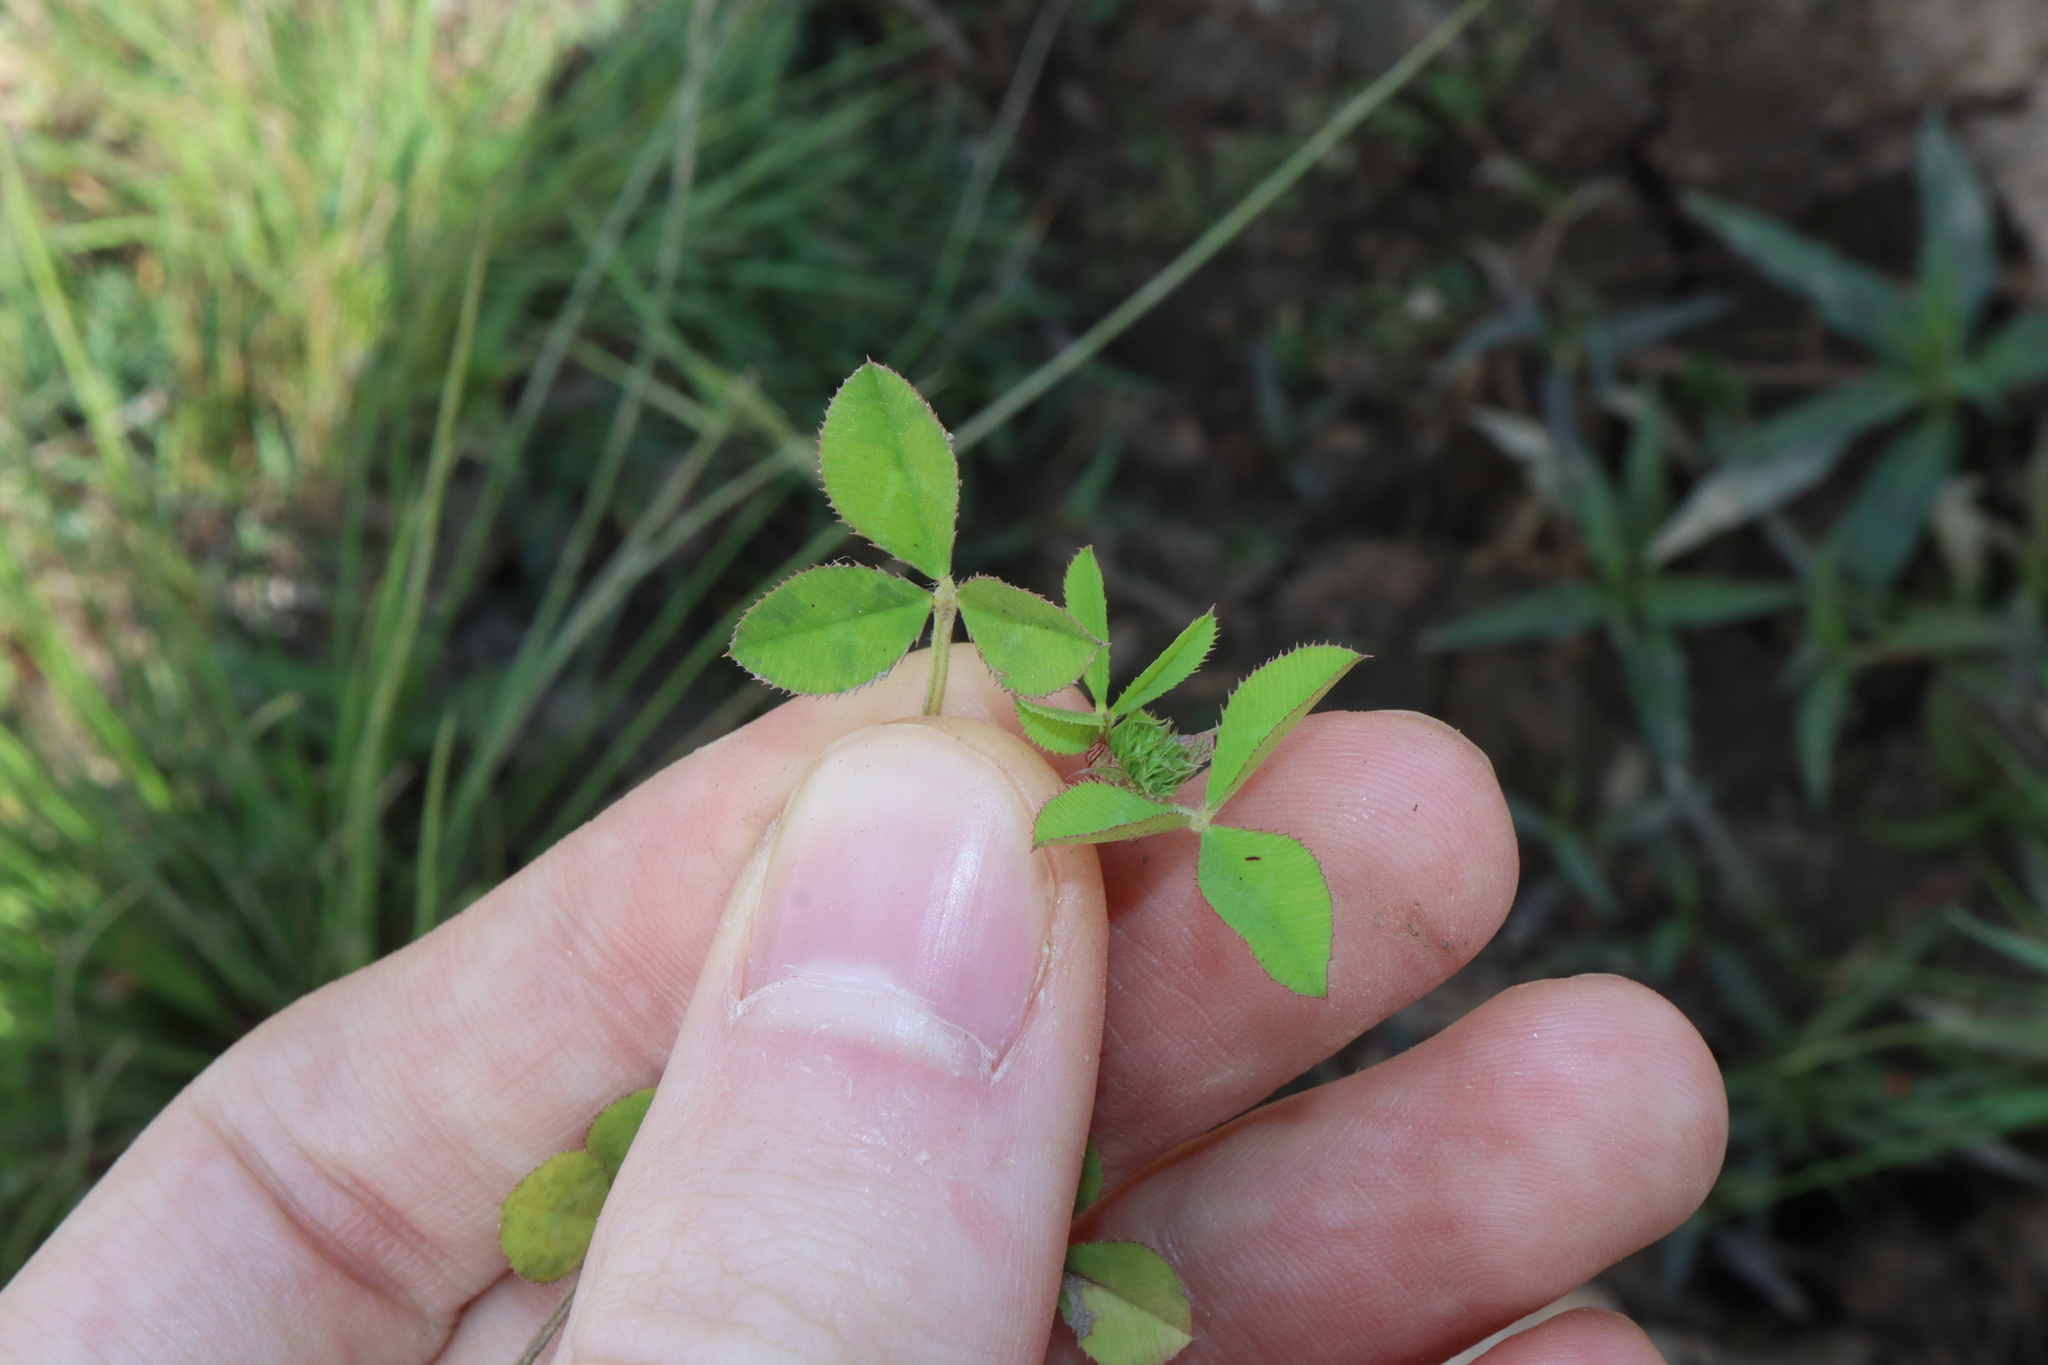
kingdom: Plantae
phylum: Tracheophyta
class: Magnoliopsida
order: Fabales
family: Fabaceae
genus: Trifolium
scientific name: Trifolium glomeratum
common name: Clustered clover
